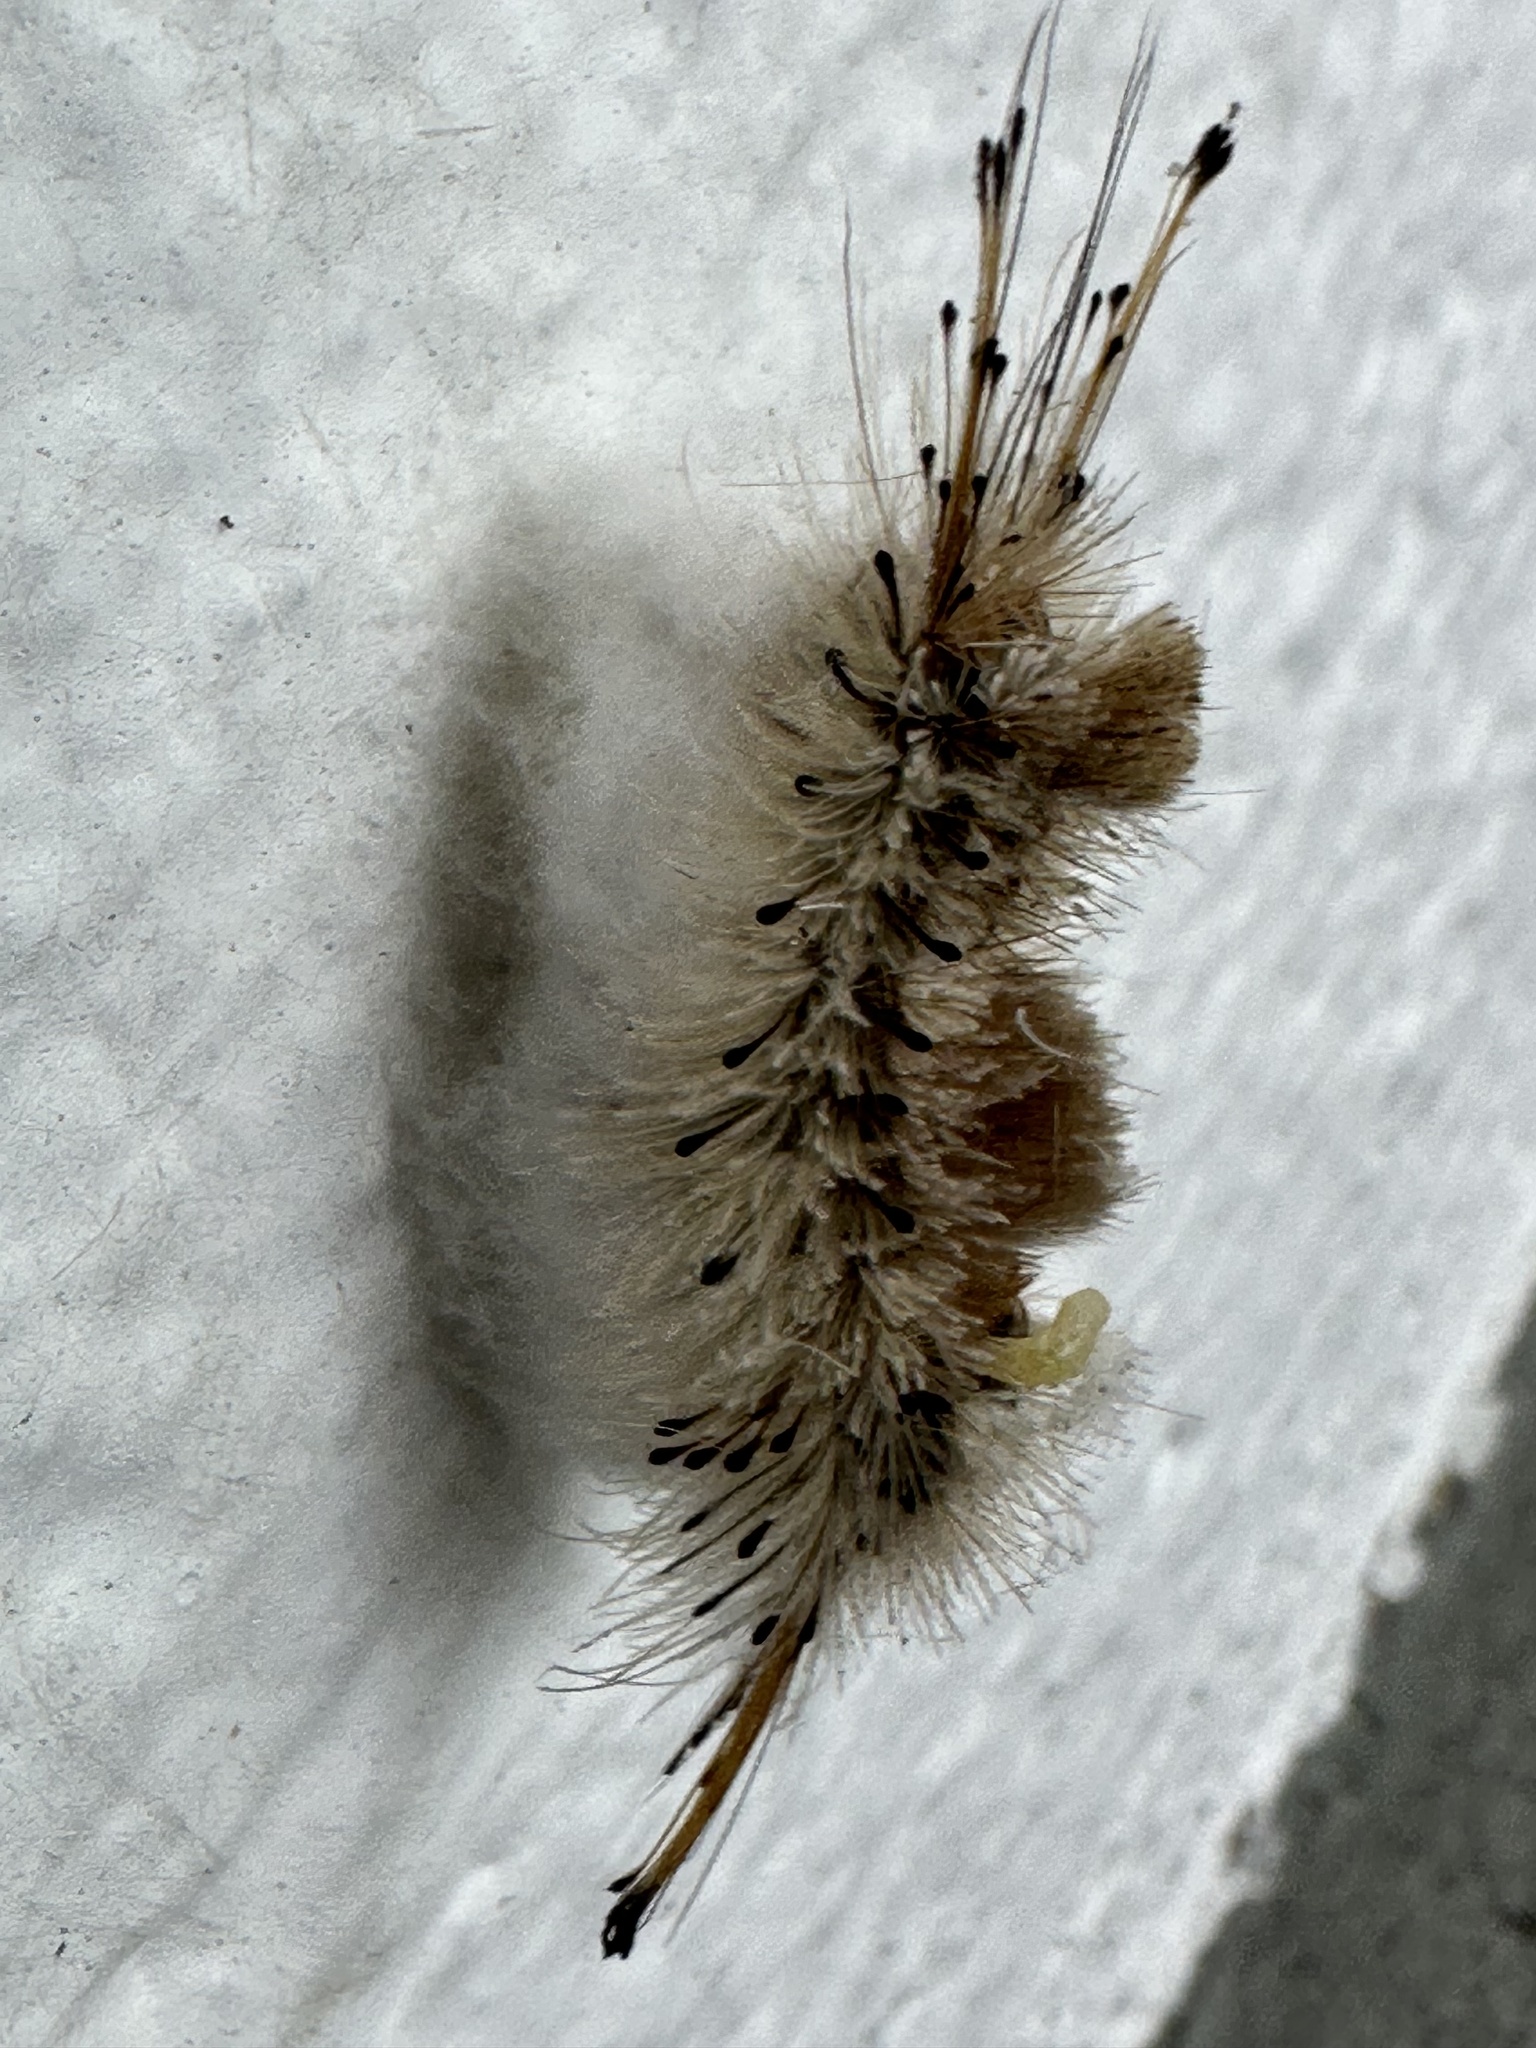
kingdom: Animalia
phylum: Arthropoda
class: Insecta
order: Lepidoptera
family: Erebidae
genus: Dasychira
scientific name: Dasychira meridionalis
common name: Southern tussock moth
